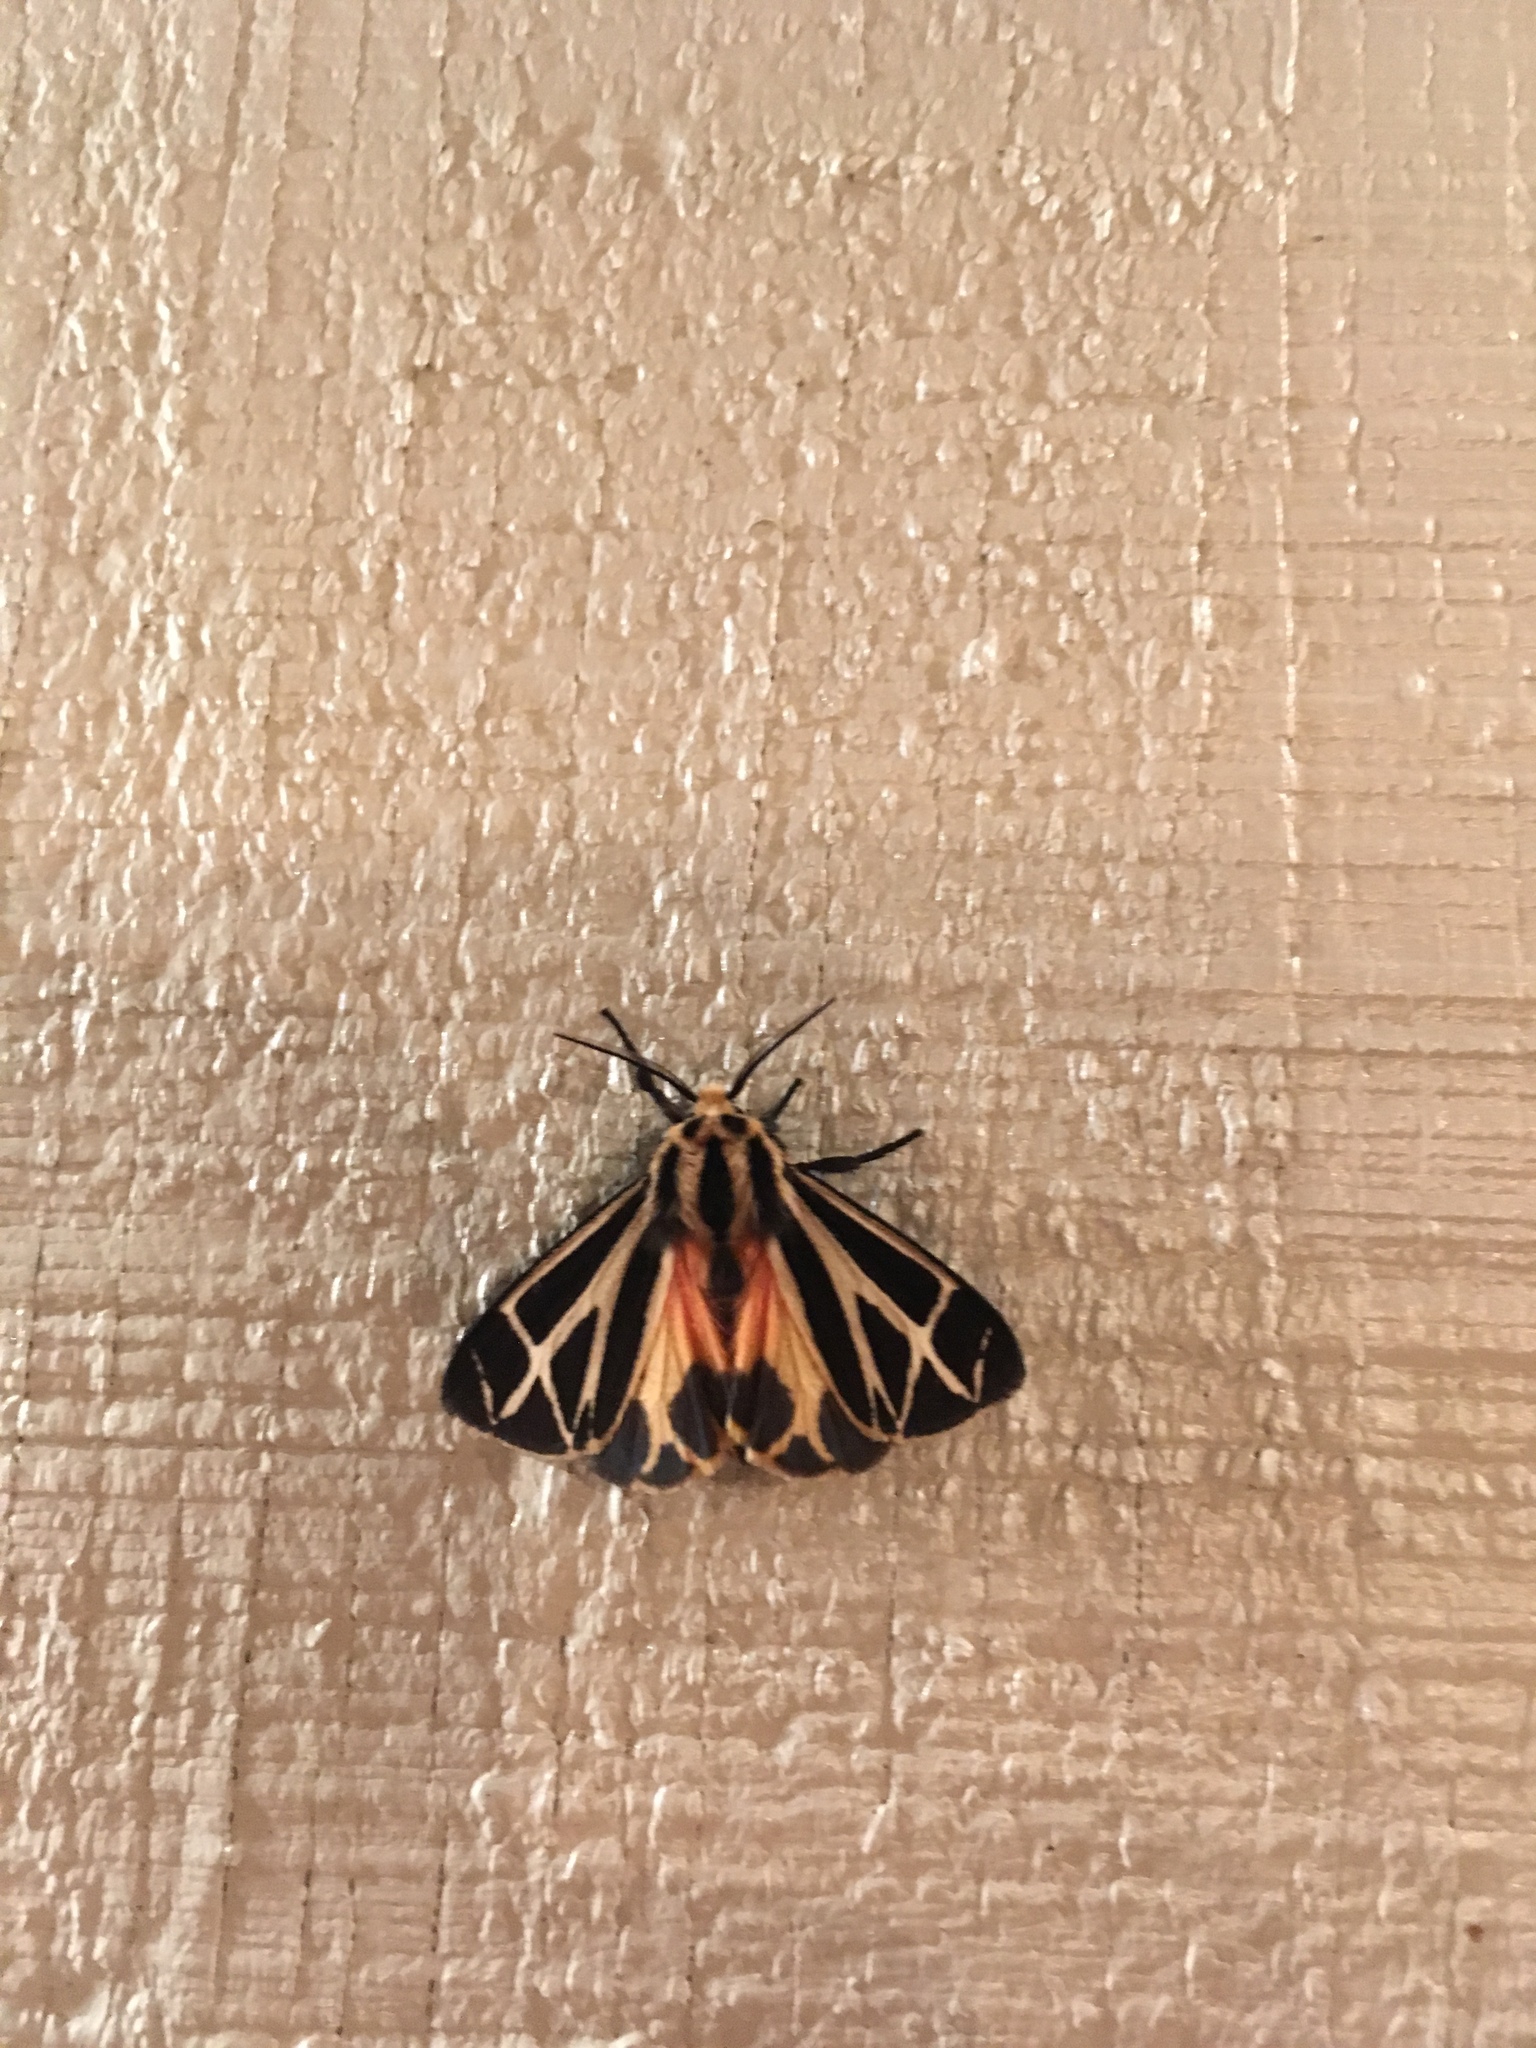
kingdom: Animalia
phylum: Arthropoda
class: Insecta
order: Lepidoptera
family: Erebidae
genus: Apantesis
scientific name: Apantesis phalerata
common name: Harnessed tiger moth
